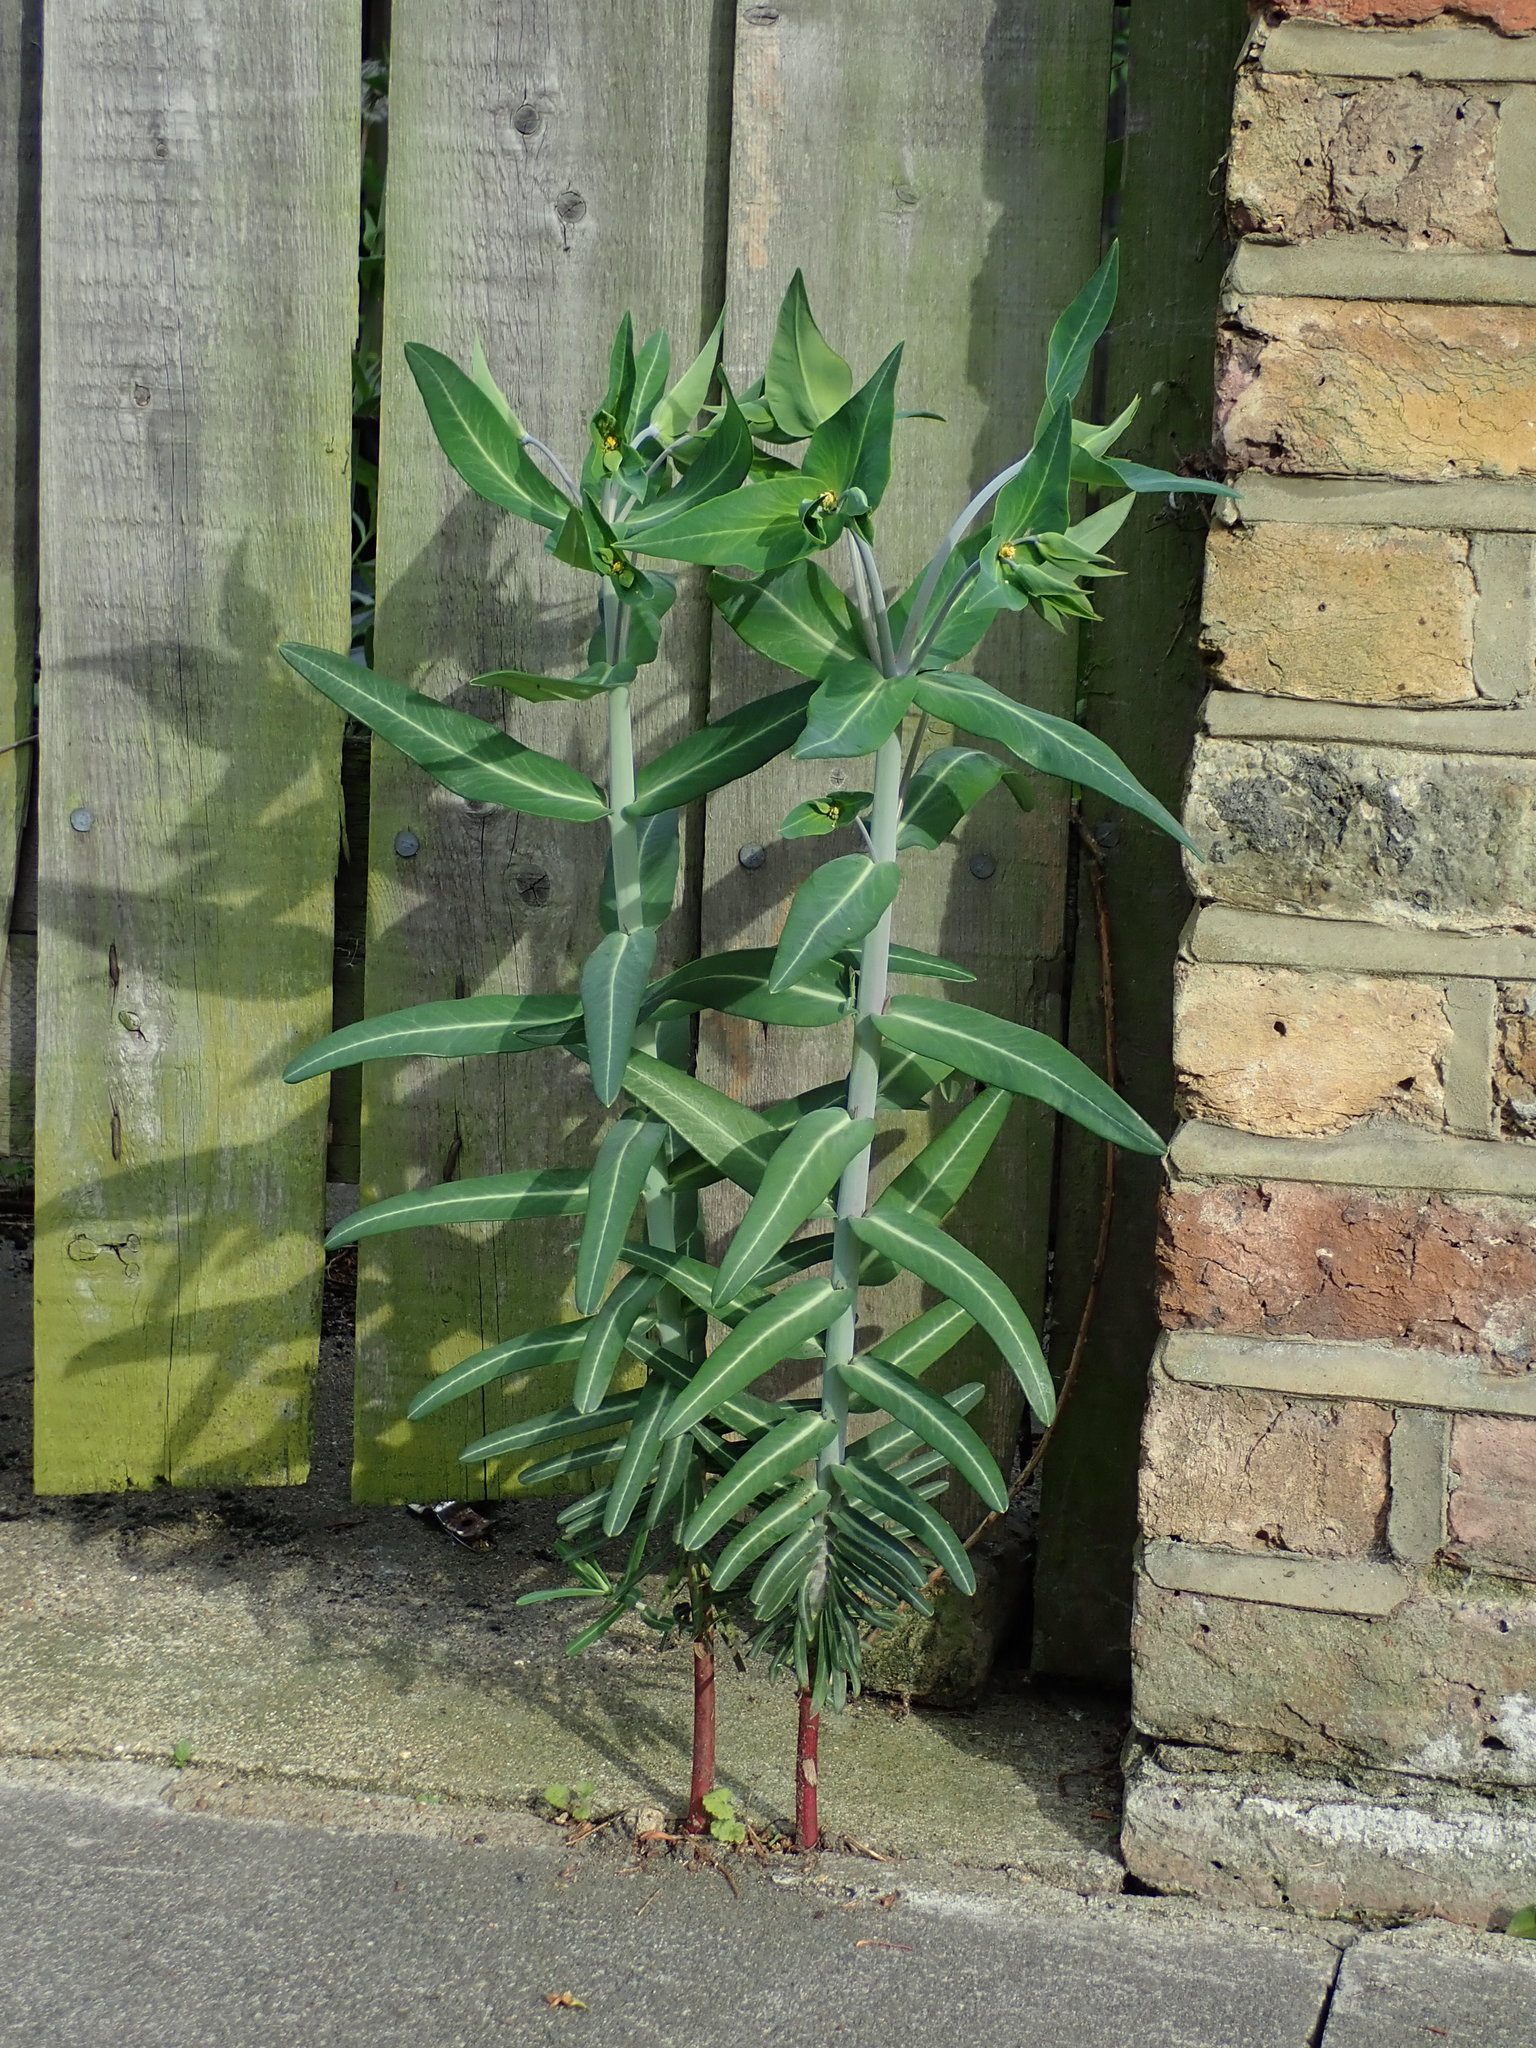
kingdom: Plantae
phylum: Tracheophyta
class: Magnoliopsida
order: Malpighiales
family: Euphorbiaceae
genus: Euphorbia
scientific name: Euphorbia lathyris
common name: Caper spurge
